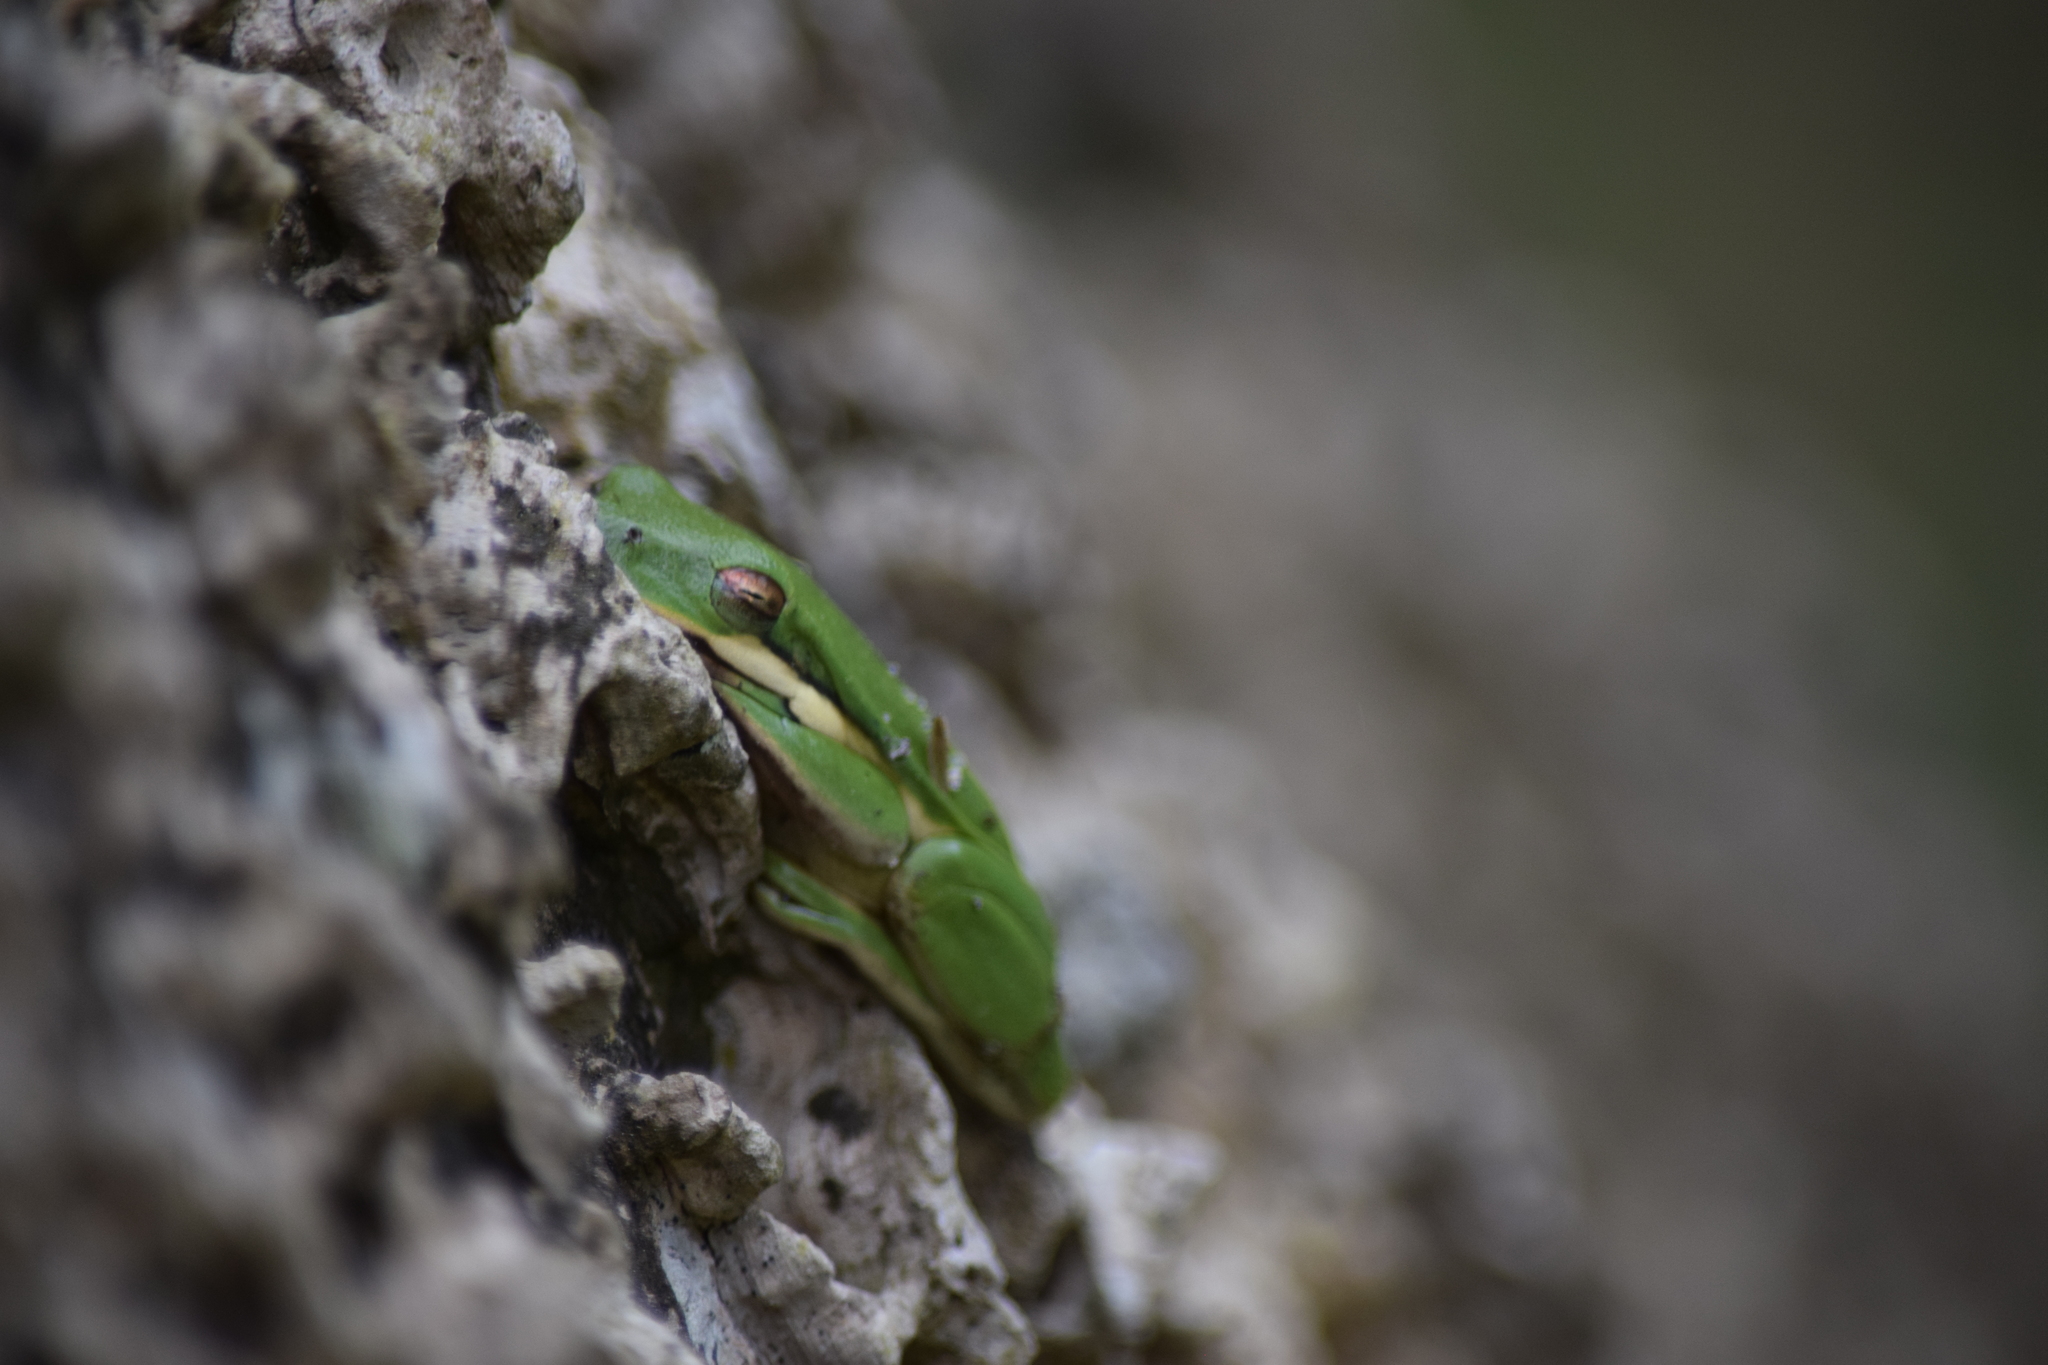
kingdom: Animalia
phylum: Chordata
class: Amphibia
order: Anura
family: Hylidae
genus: Dryophytes
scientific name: Dryophytes cinereus
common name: Green treefrog
